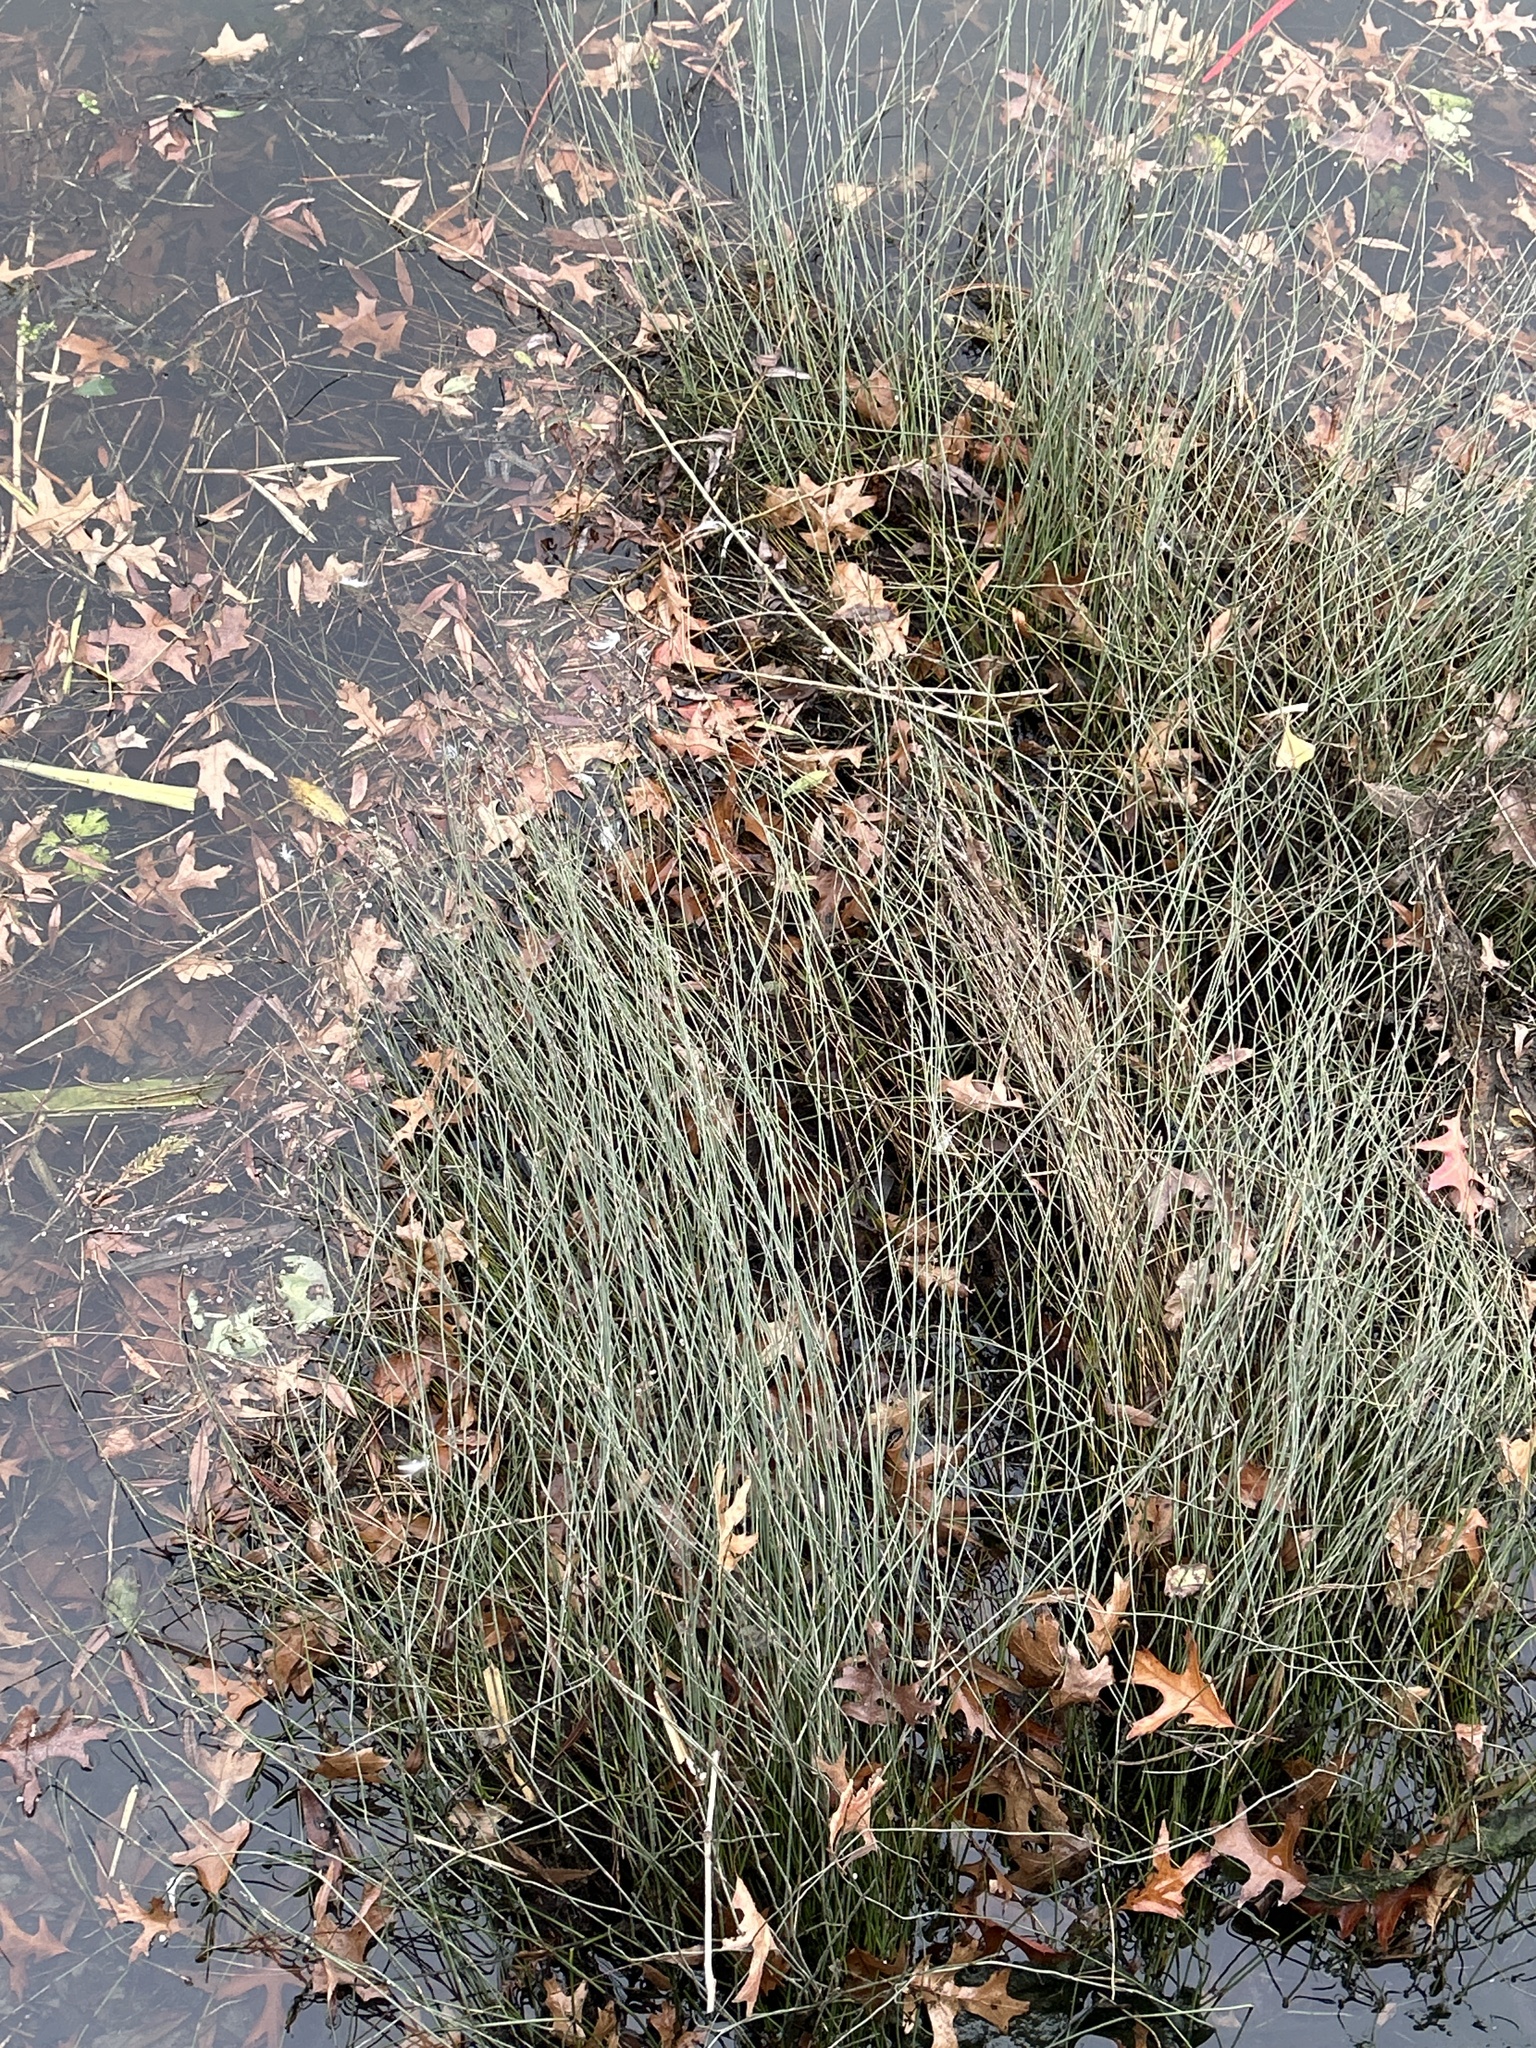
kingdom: Plantae
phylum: Tracheophyta
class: Liliopsida
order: Poales
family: Restionaceae
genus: Apodasmia
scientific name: Apodasmia similis
